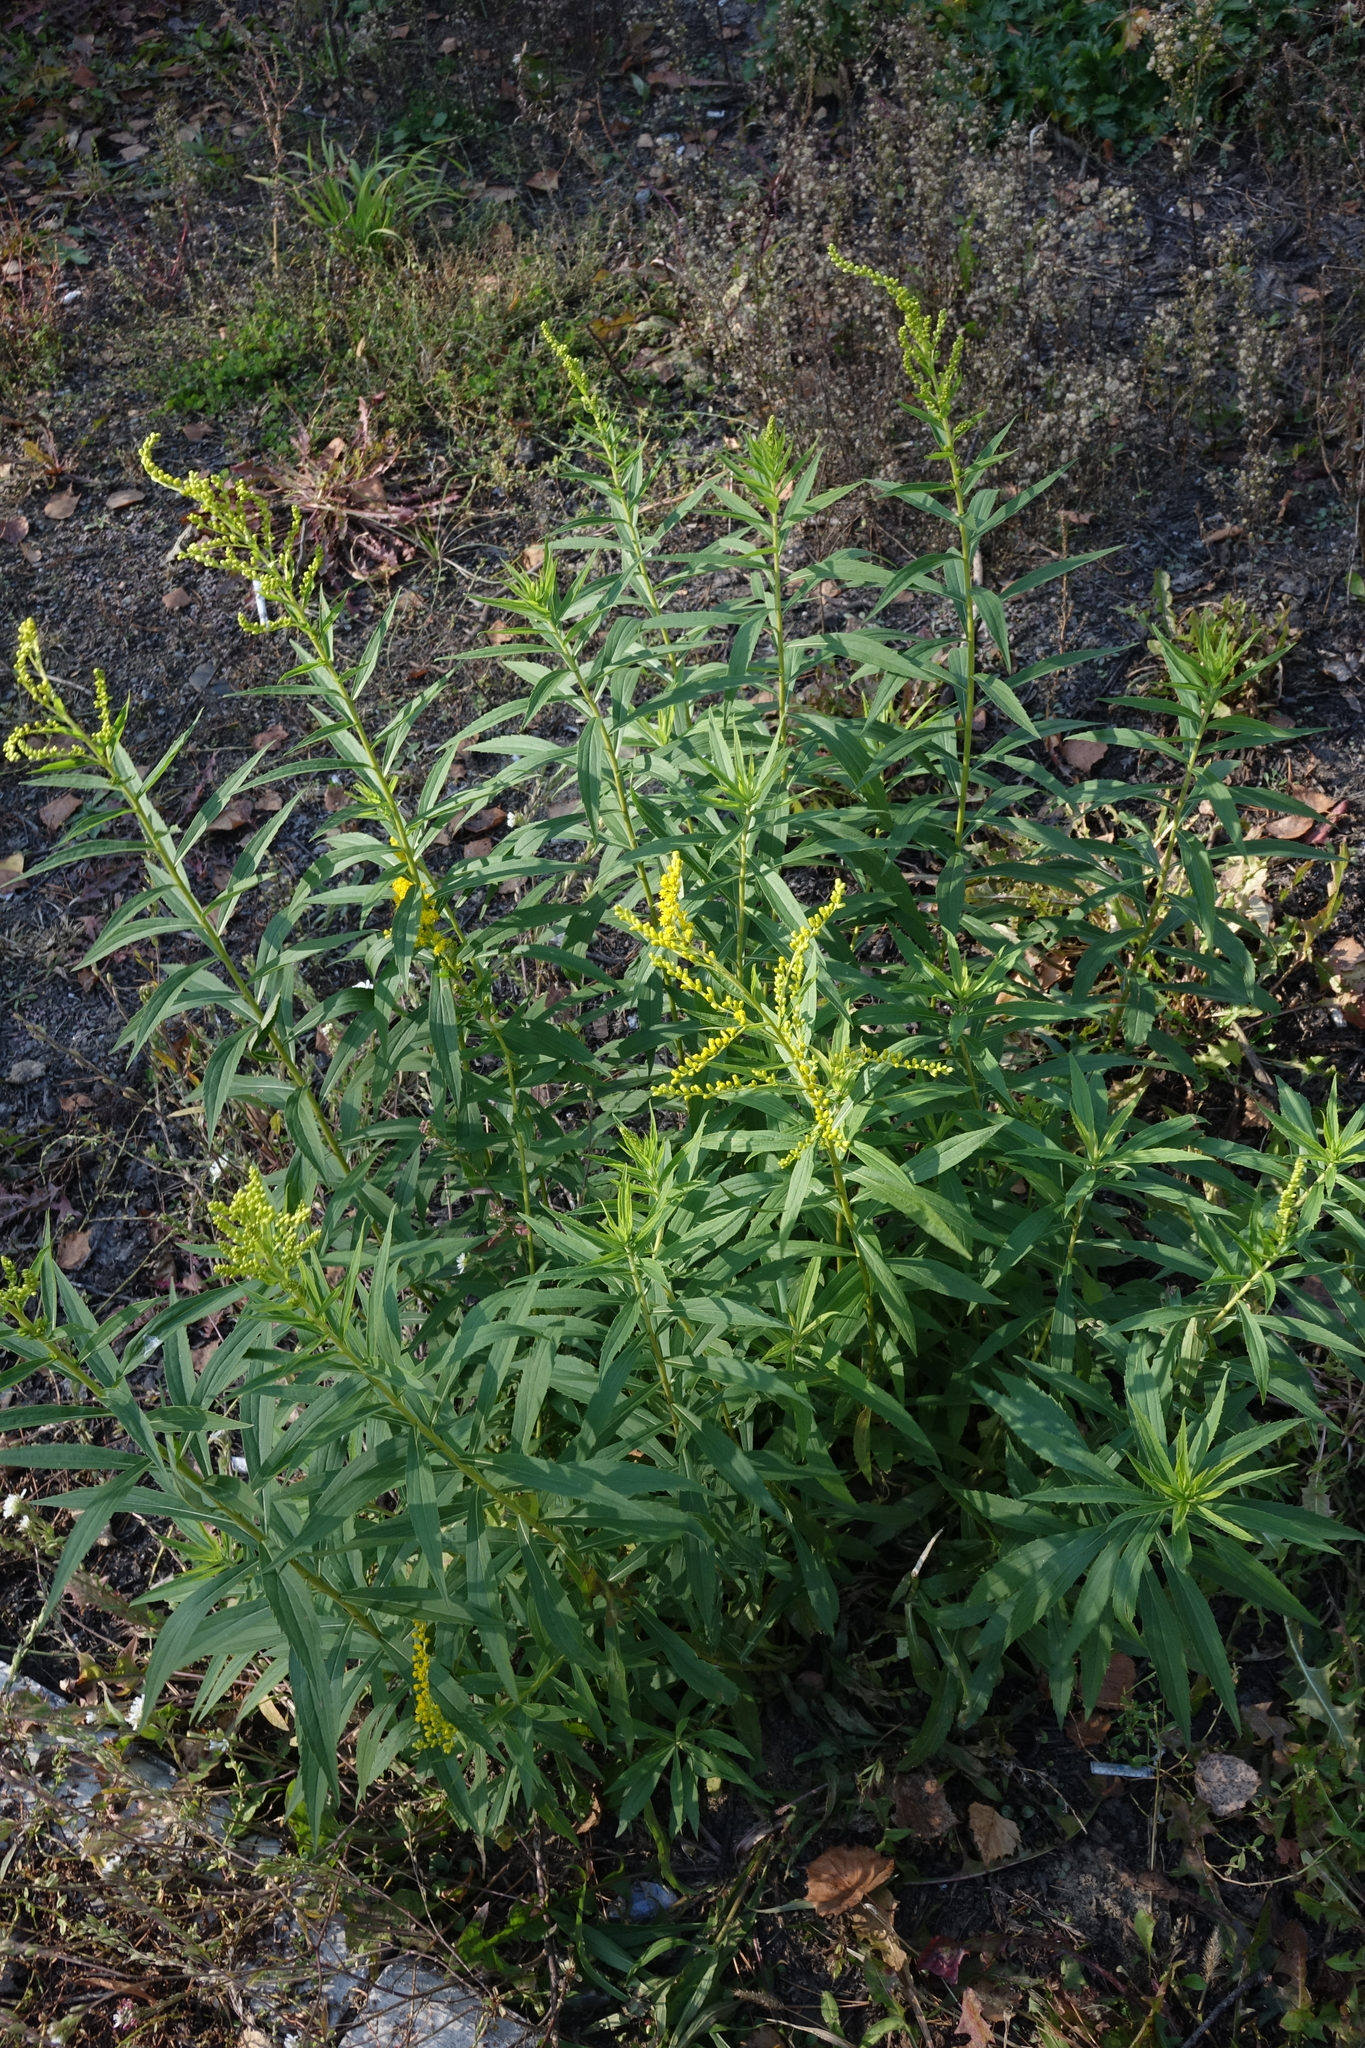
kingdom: Plantae
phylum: Tracheophyta
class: Magnoliopsida
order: Asterales
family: Asteraceae
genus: Solidago
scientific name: Solidago canadensis
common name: Canada goldenrod
